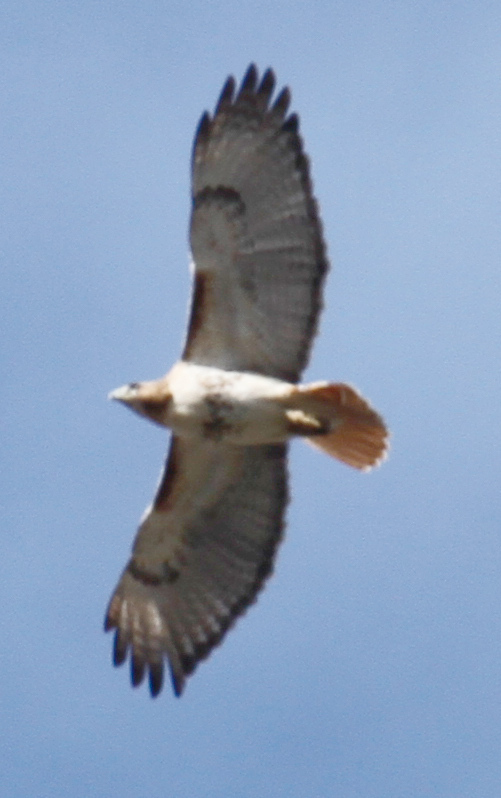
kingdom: Animalia
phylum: Chordata
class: Aves
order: Accipitriformes
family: Accipitridae
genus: Buteo
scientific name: Buteo jamaicensis
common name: Red-tailed hawk
